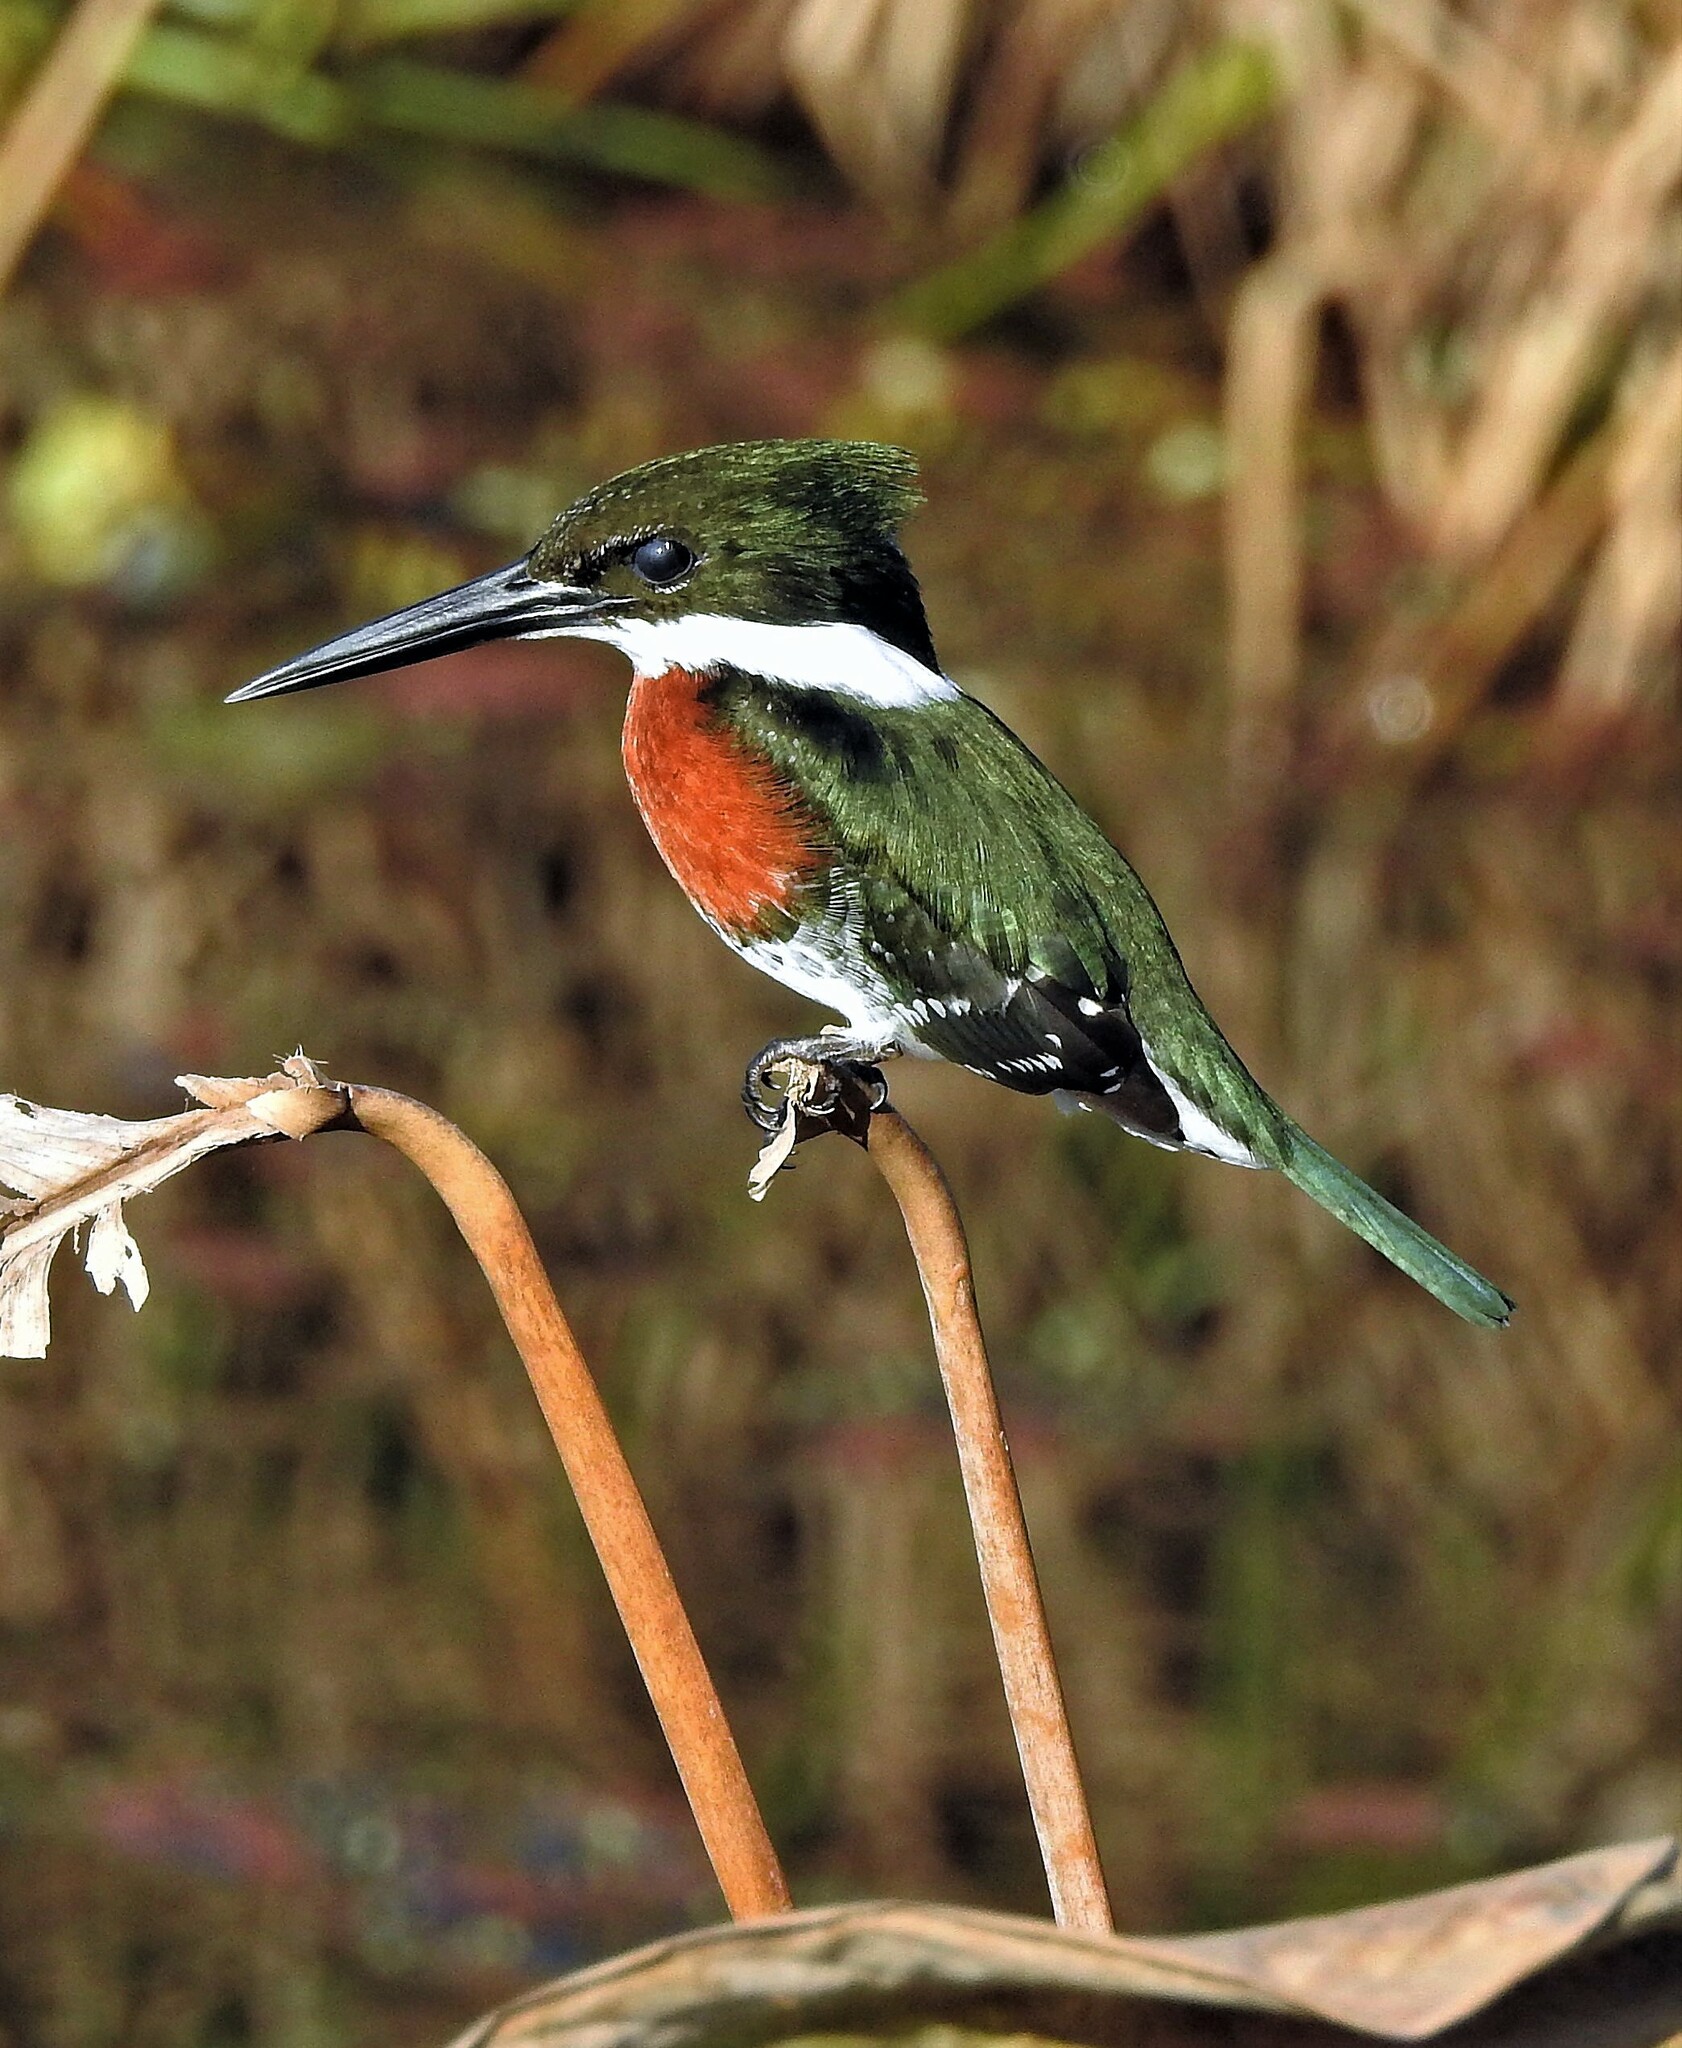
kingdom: Animalia
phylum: Chordata
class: Aves
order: Coraciiformes
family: Alcedinidae
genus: Chloroceryle
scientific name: Chloroceryle americana
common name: Green kingfisher
